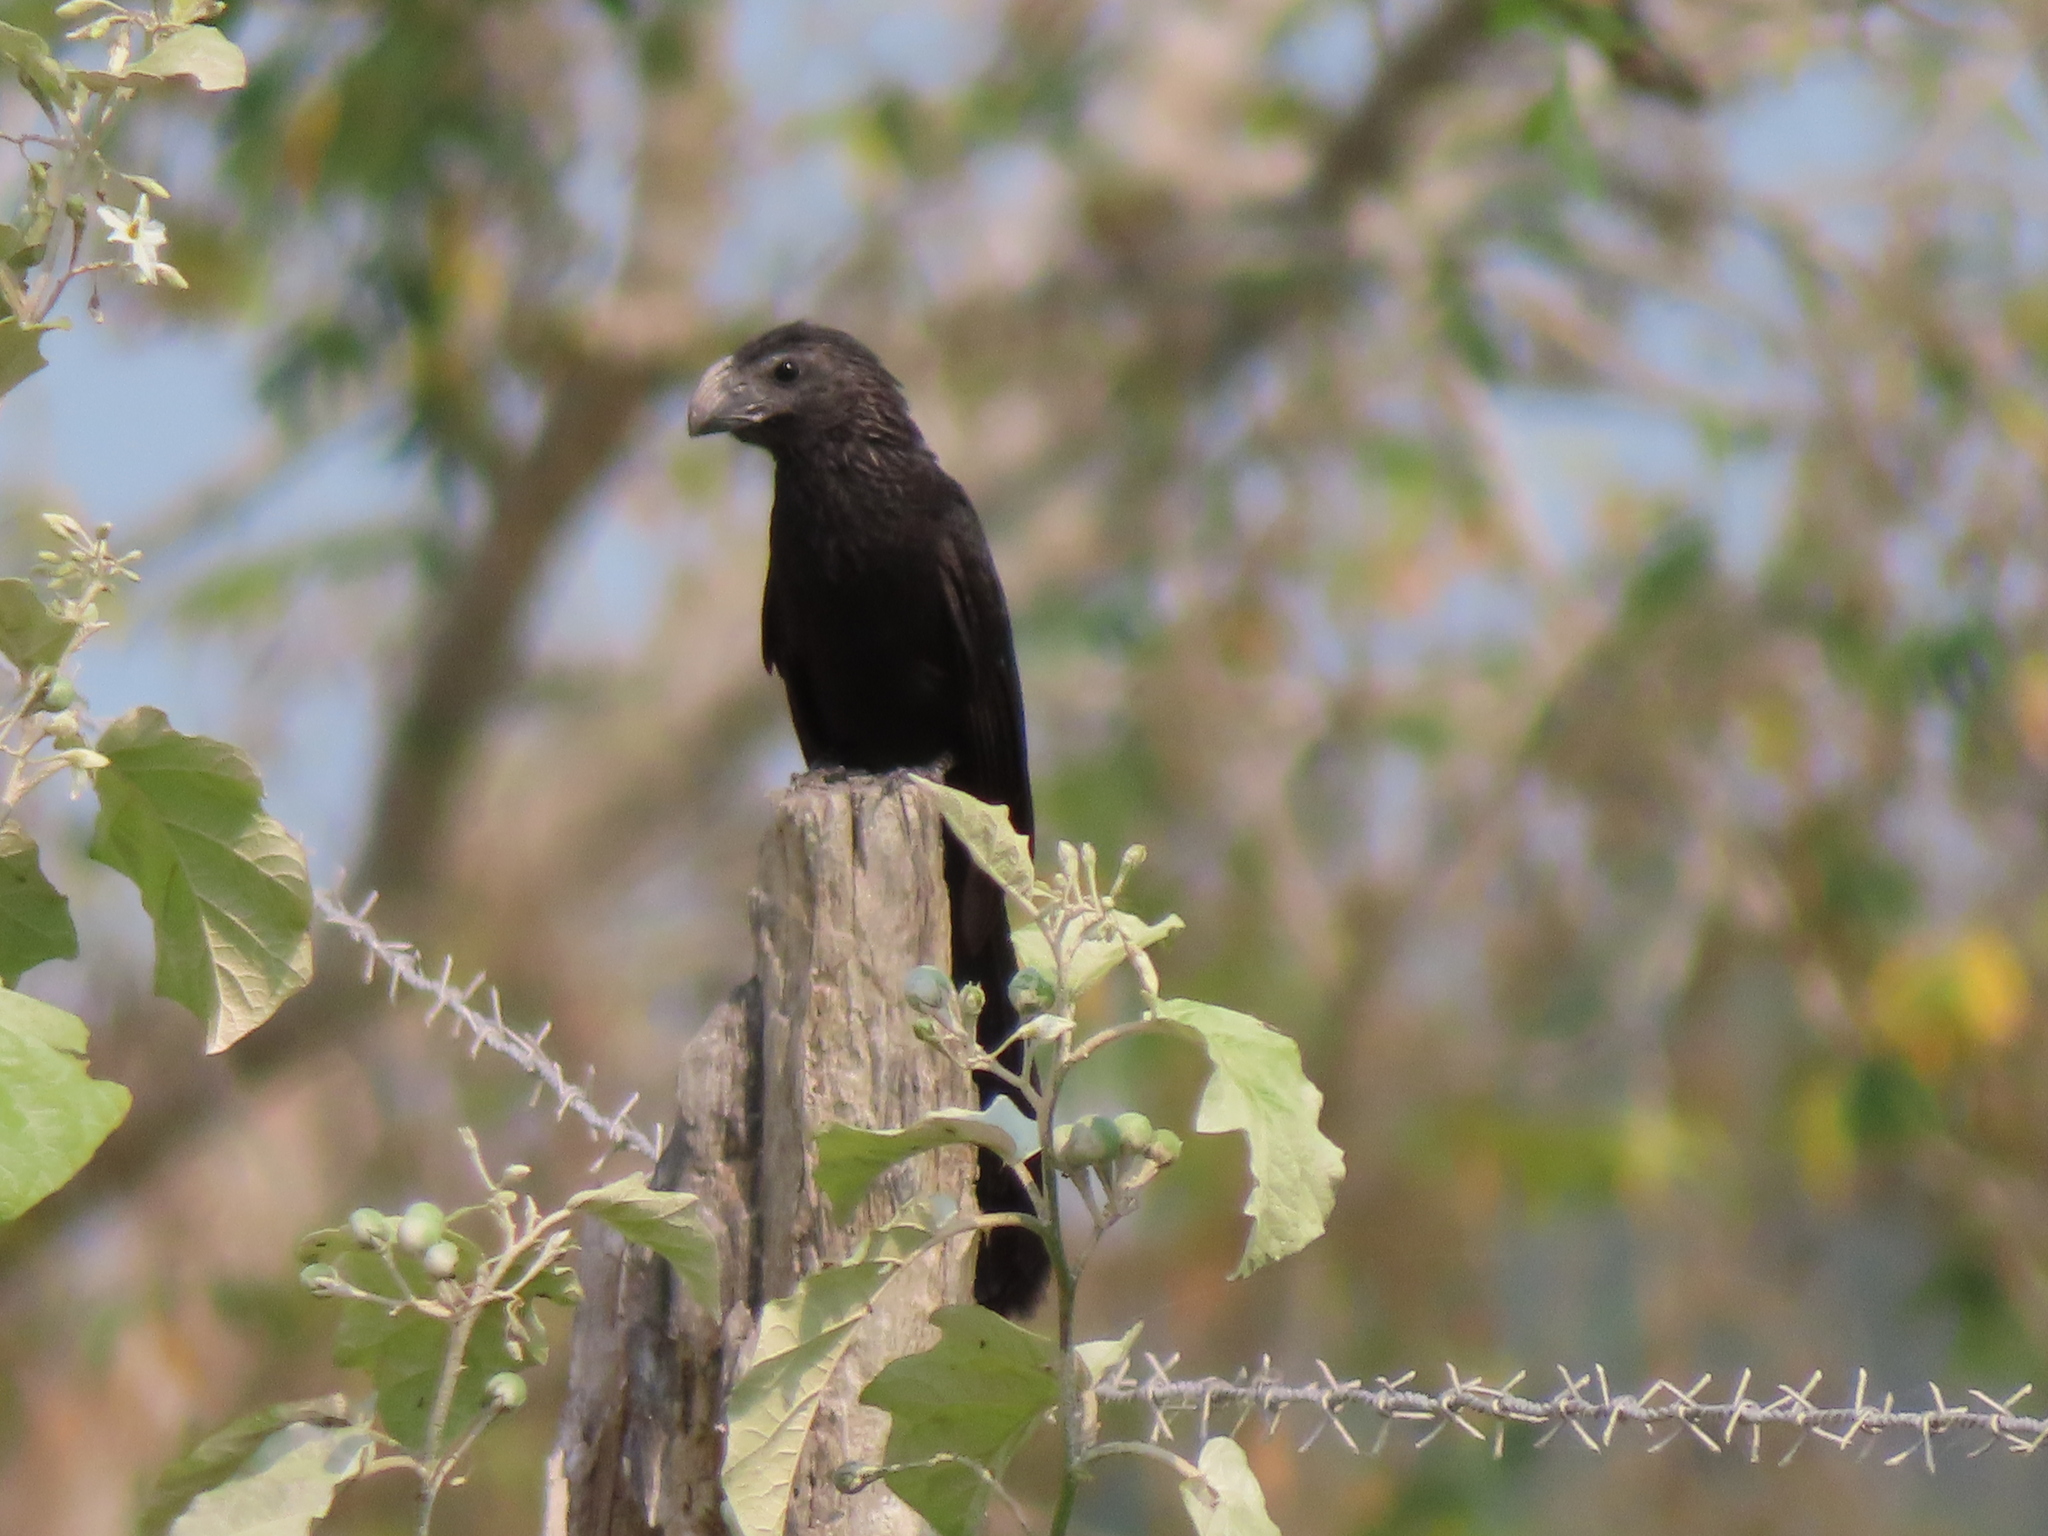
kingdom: Animalia
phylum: Chordata
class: Aves
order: Cuculiformes
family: Cuculidae
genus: Crotophaga
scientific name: Crotophaga sulcirostris
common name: Groove-billed ani
